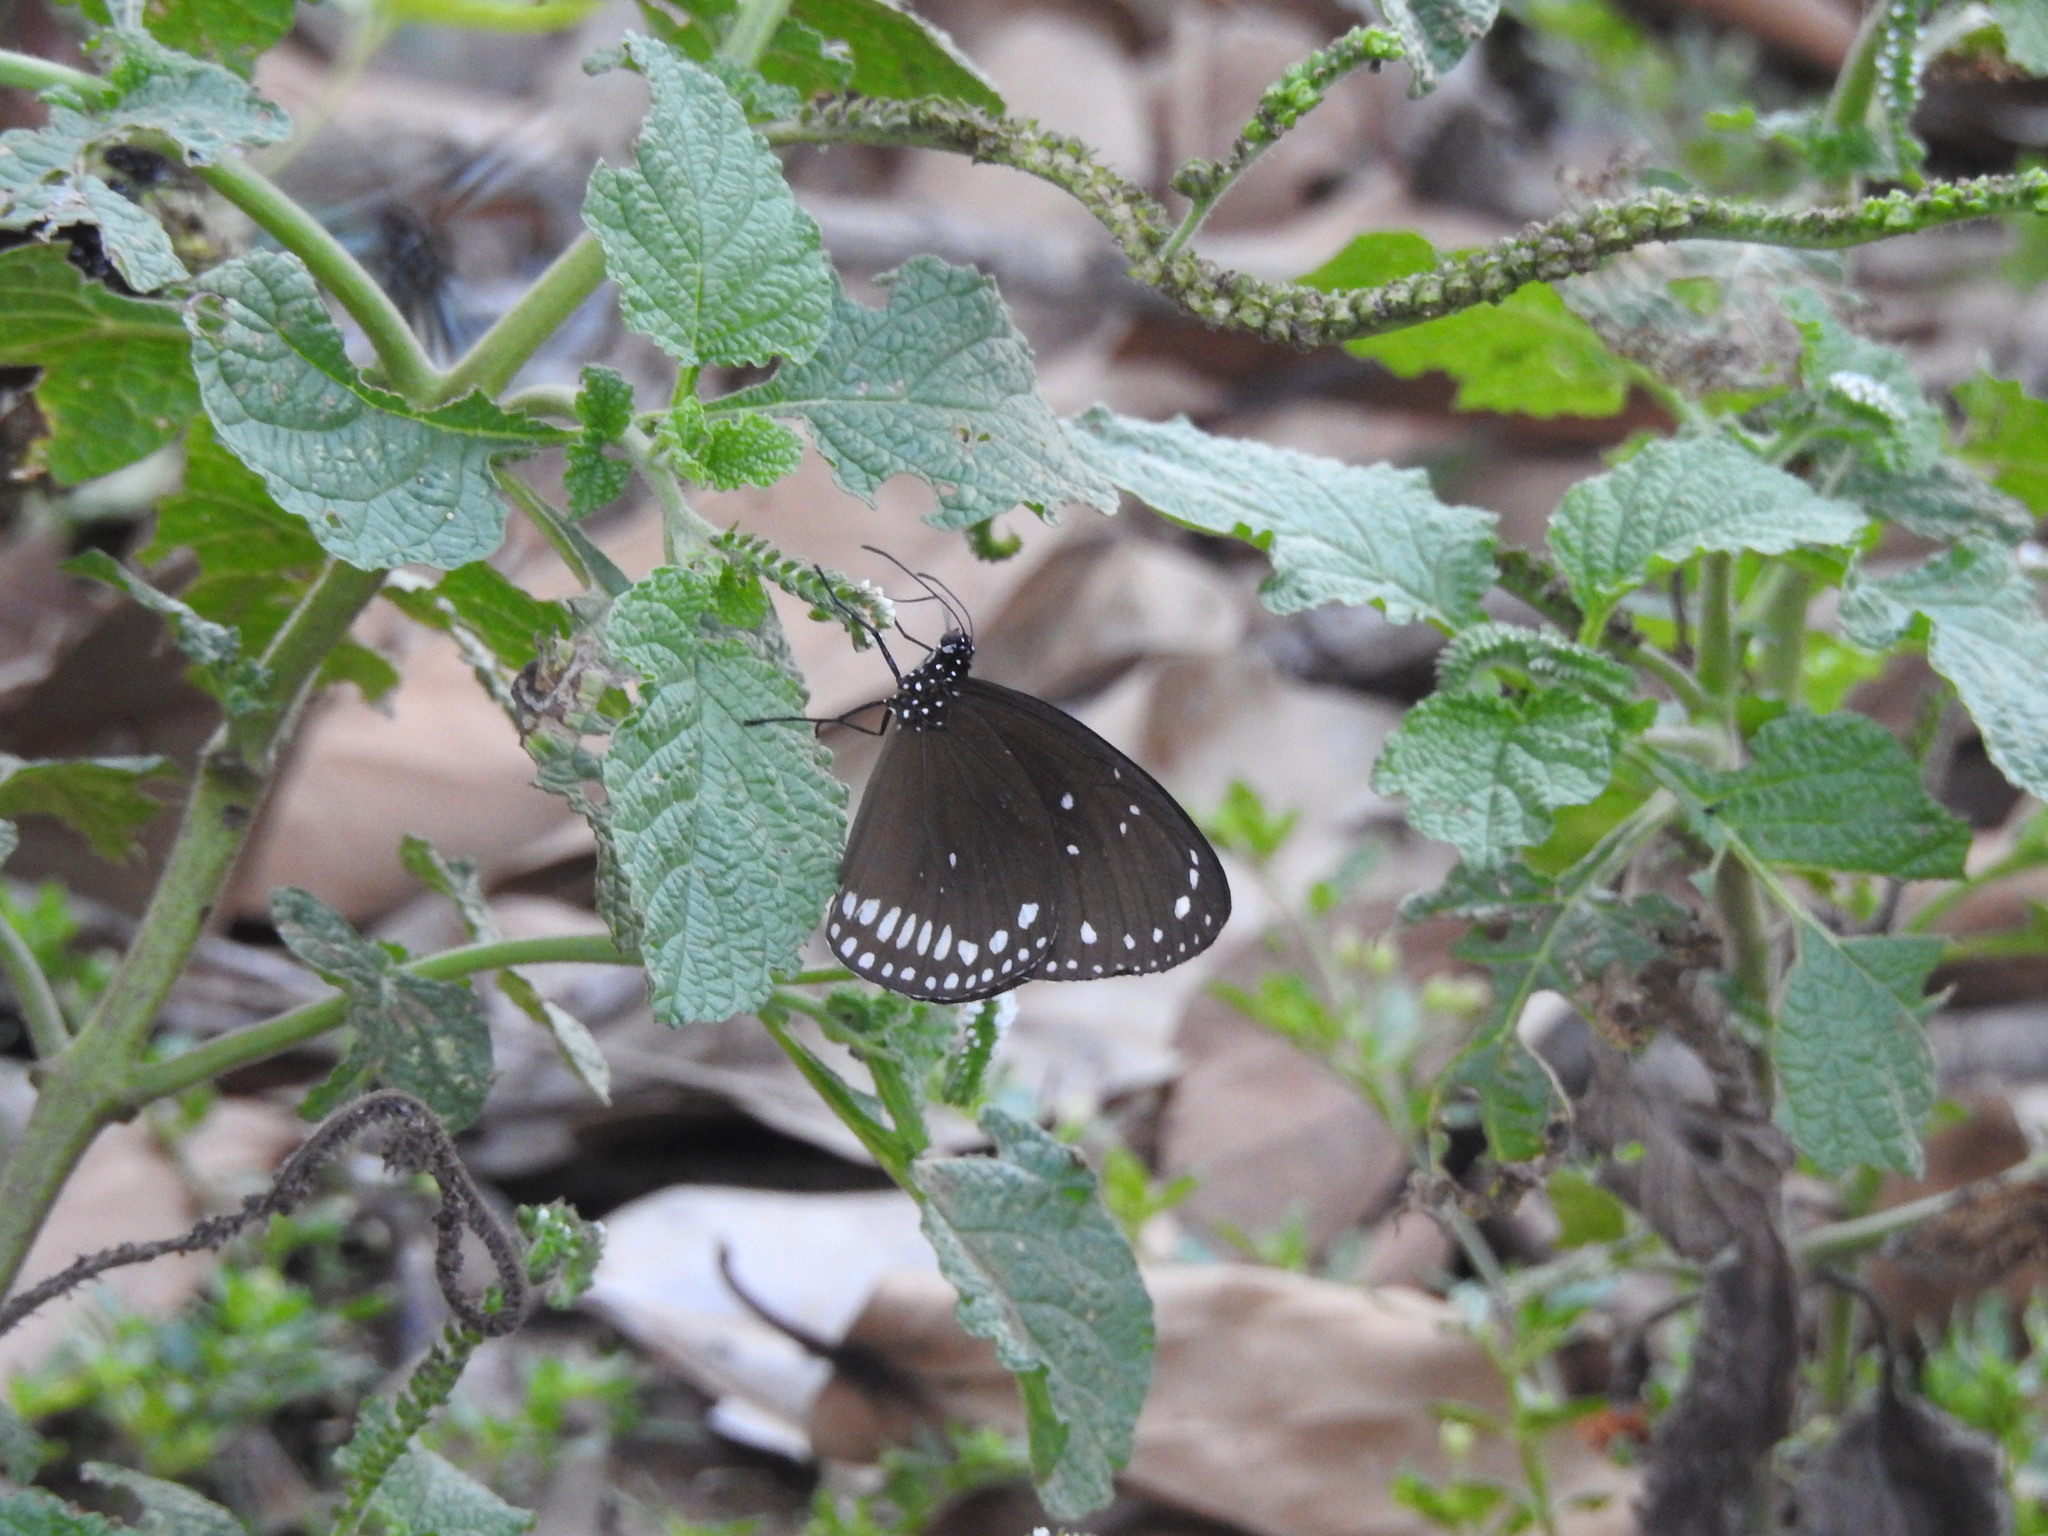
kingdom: Animalia
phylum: Arthropoda
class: Insecta
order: Lepidoptera
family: Nymphalidae
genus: Euploea
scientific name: Euploea sylvester
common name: Double-branded crow butterfly
